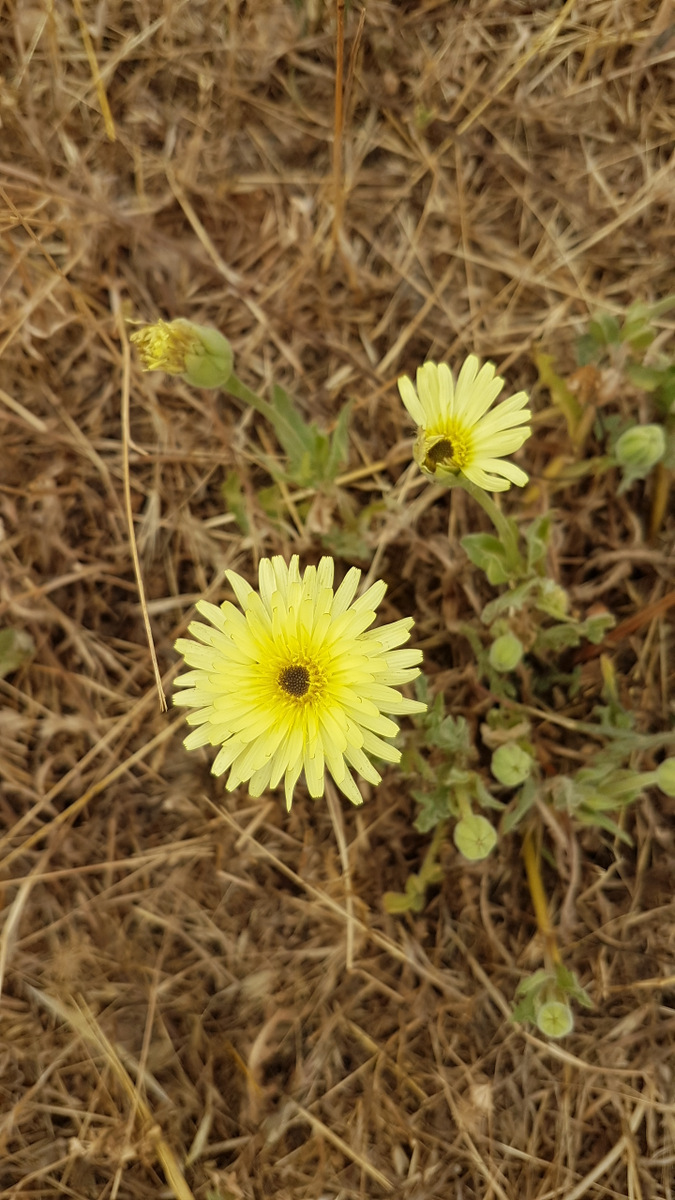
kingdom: Plantae
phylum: Tracheophyta
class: Magnoliopsida
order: Asterales
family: Asteraceae
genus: Urospermum
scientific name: Urospermum dalechampii
